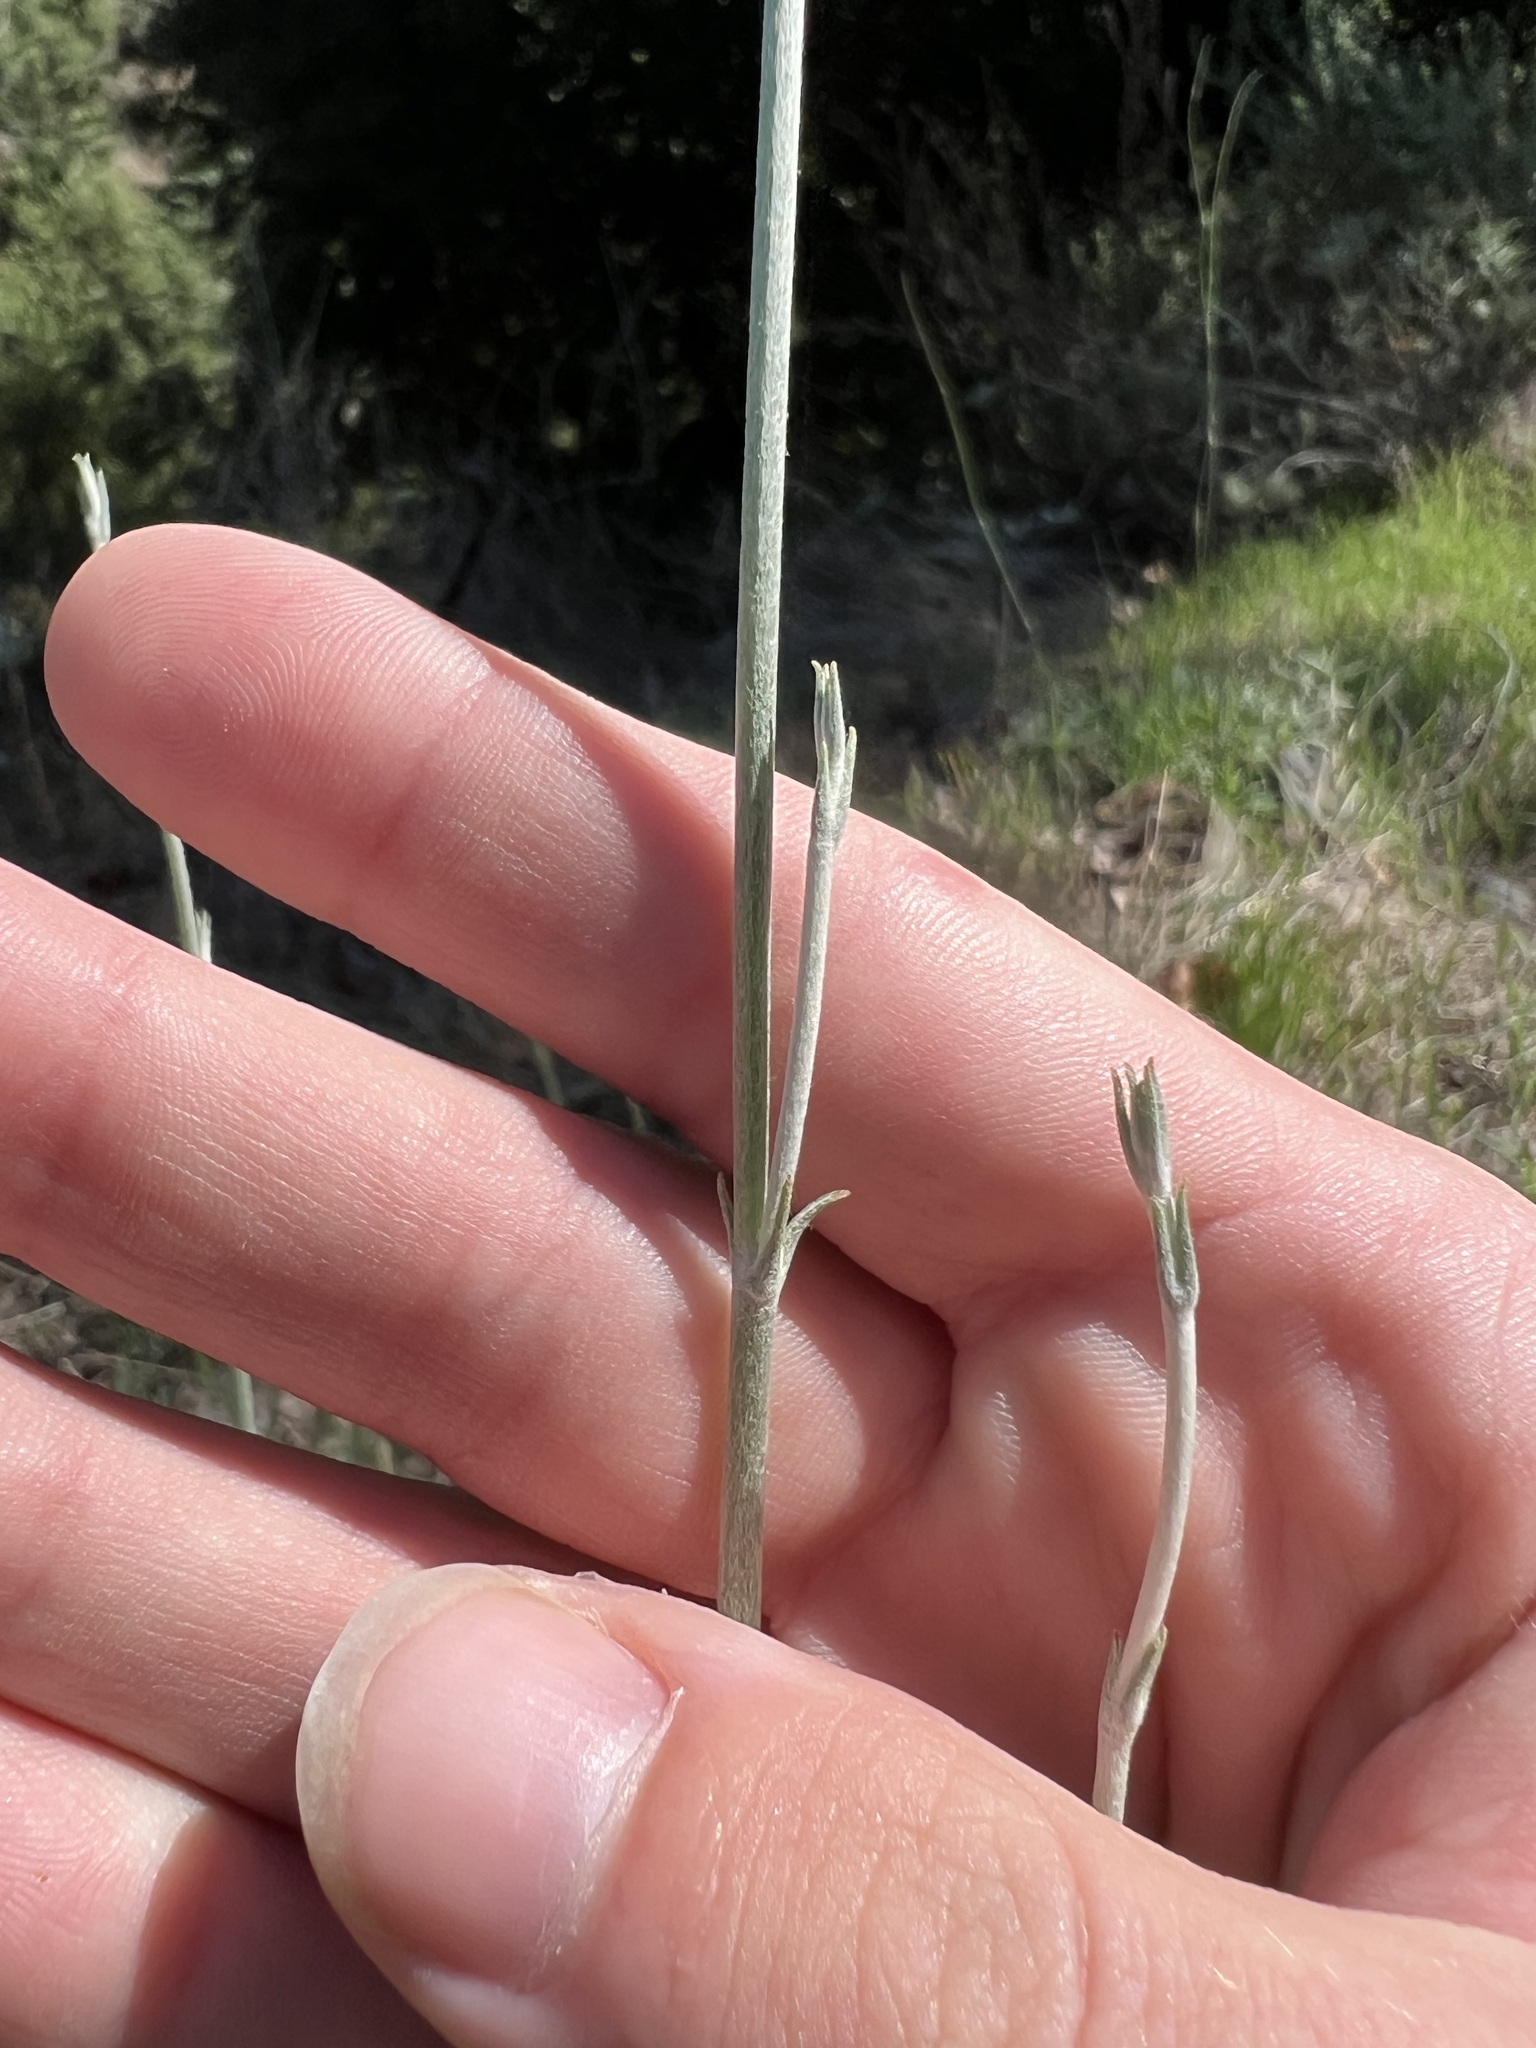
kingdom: Plantae
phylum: Tracheophyta
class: Magnoliopsida
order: Caryophyllales
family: Polygonaceae
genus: Eriogonum
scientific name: Eriogonum elongatum
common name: Long-stem wild buckwheat
